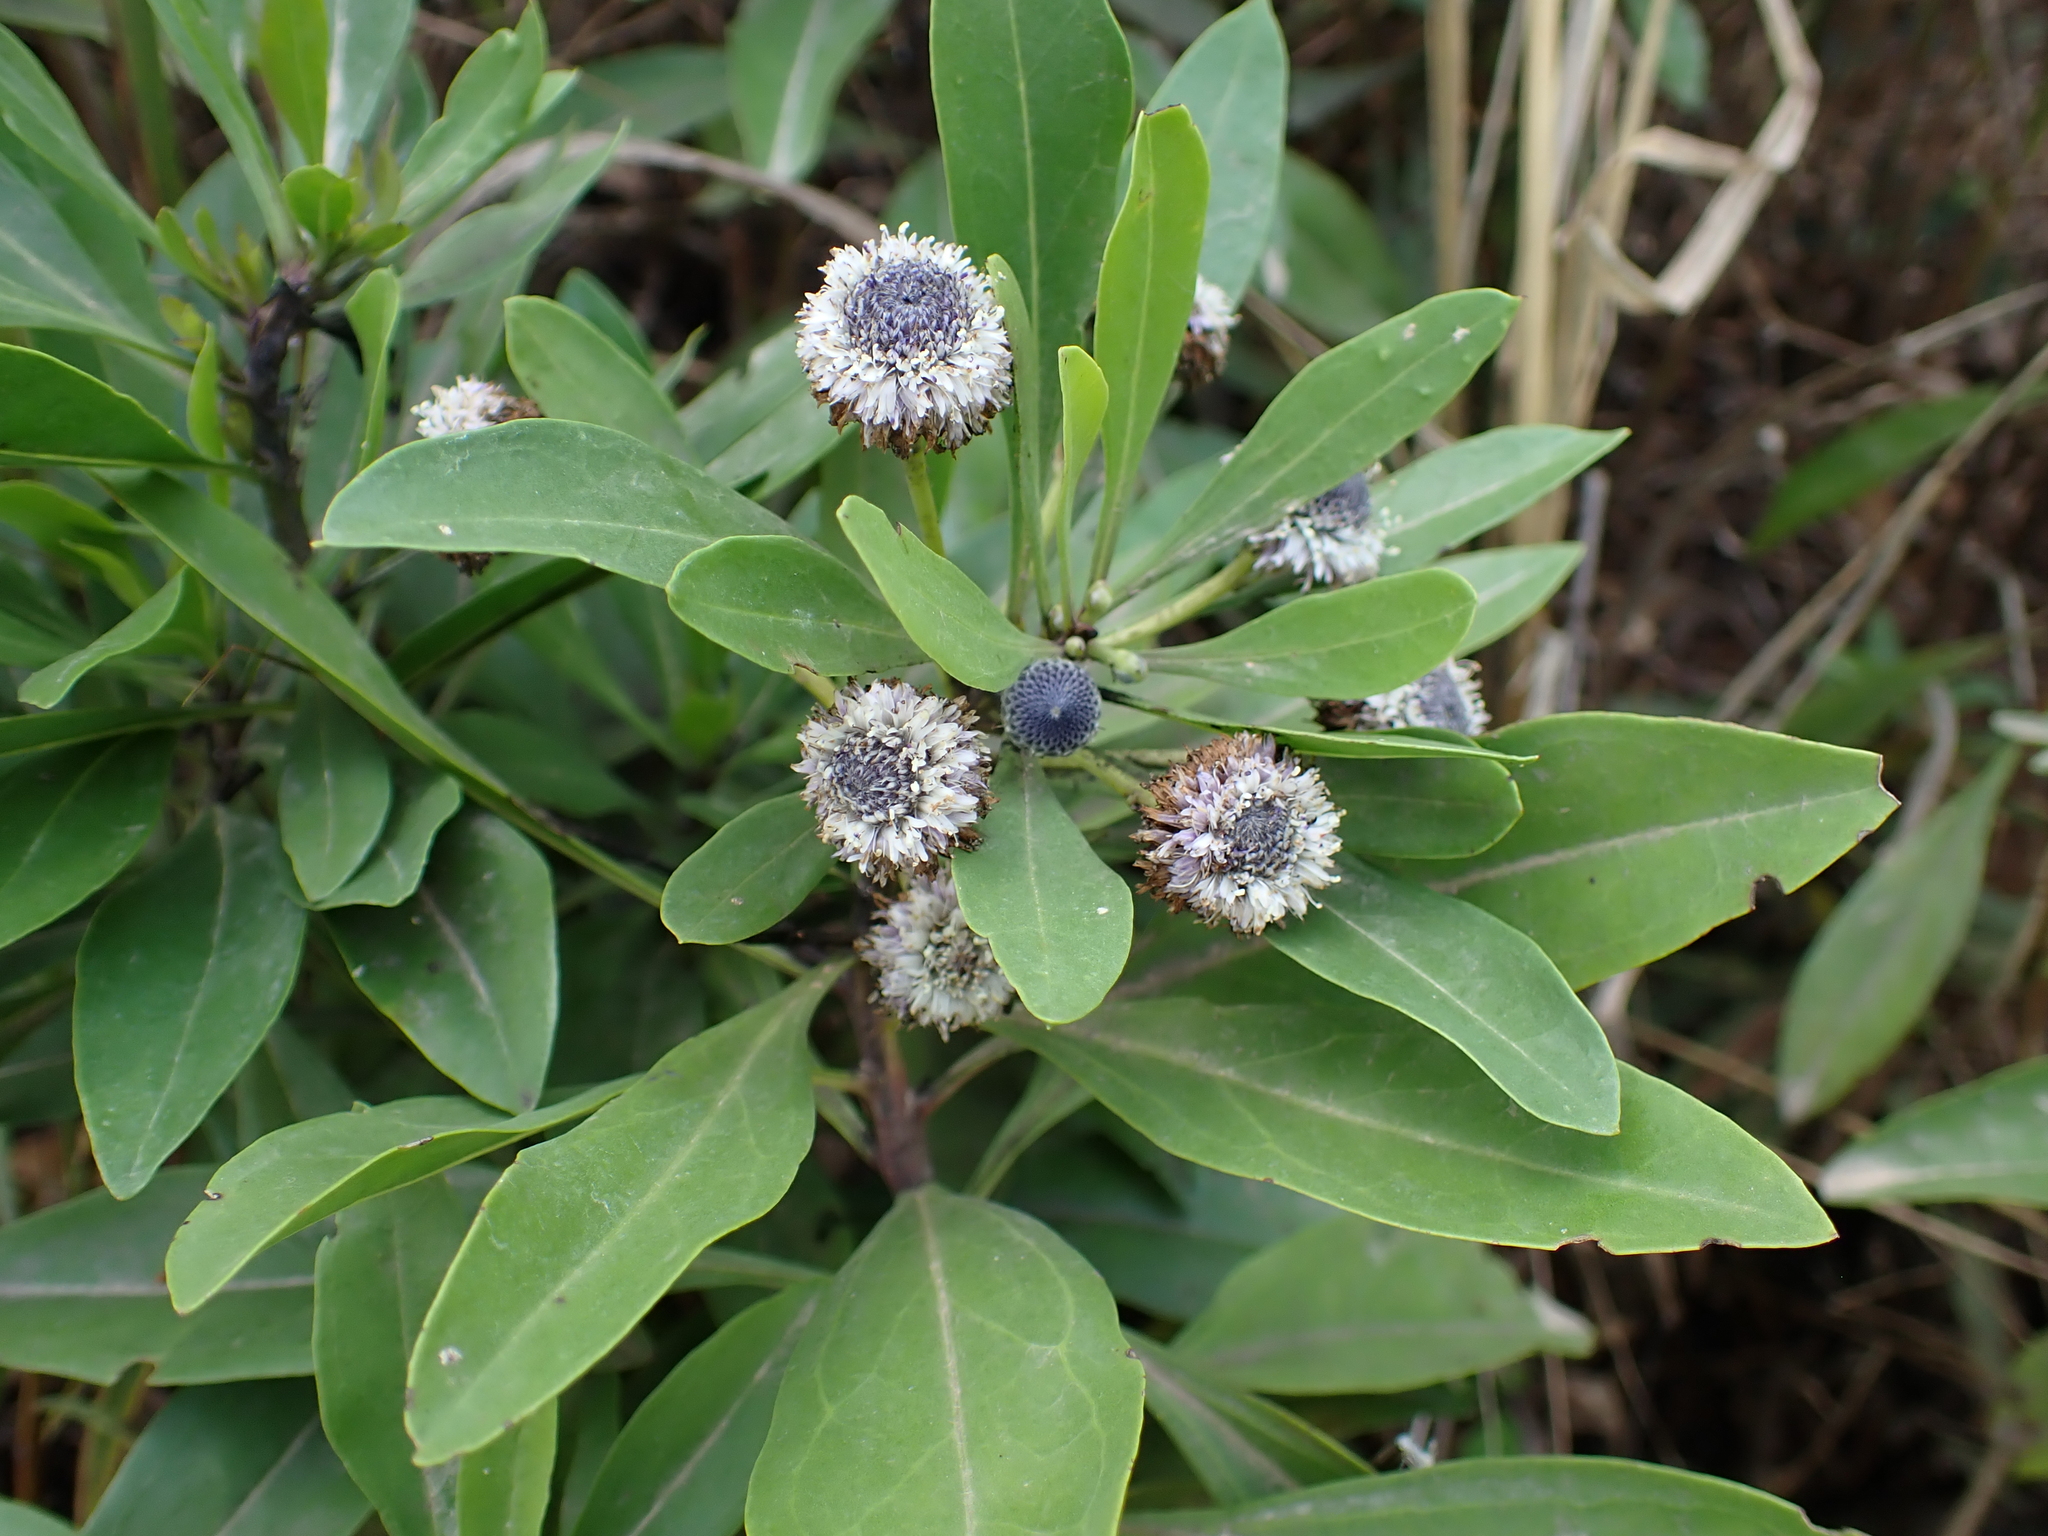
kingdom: Plantae
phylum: Tracheophyta
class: Magnoliopsida
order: Lamiales
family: Plantaginaceae
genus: Globularia
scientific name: Globularia amygdalifolia
